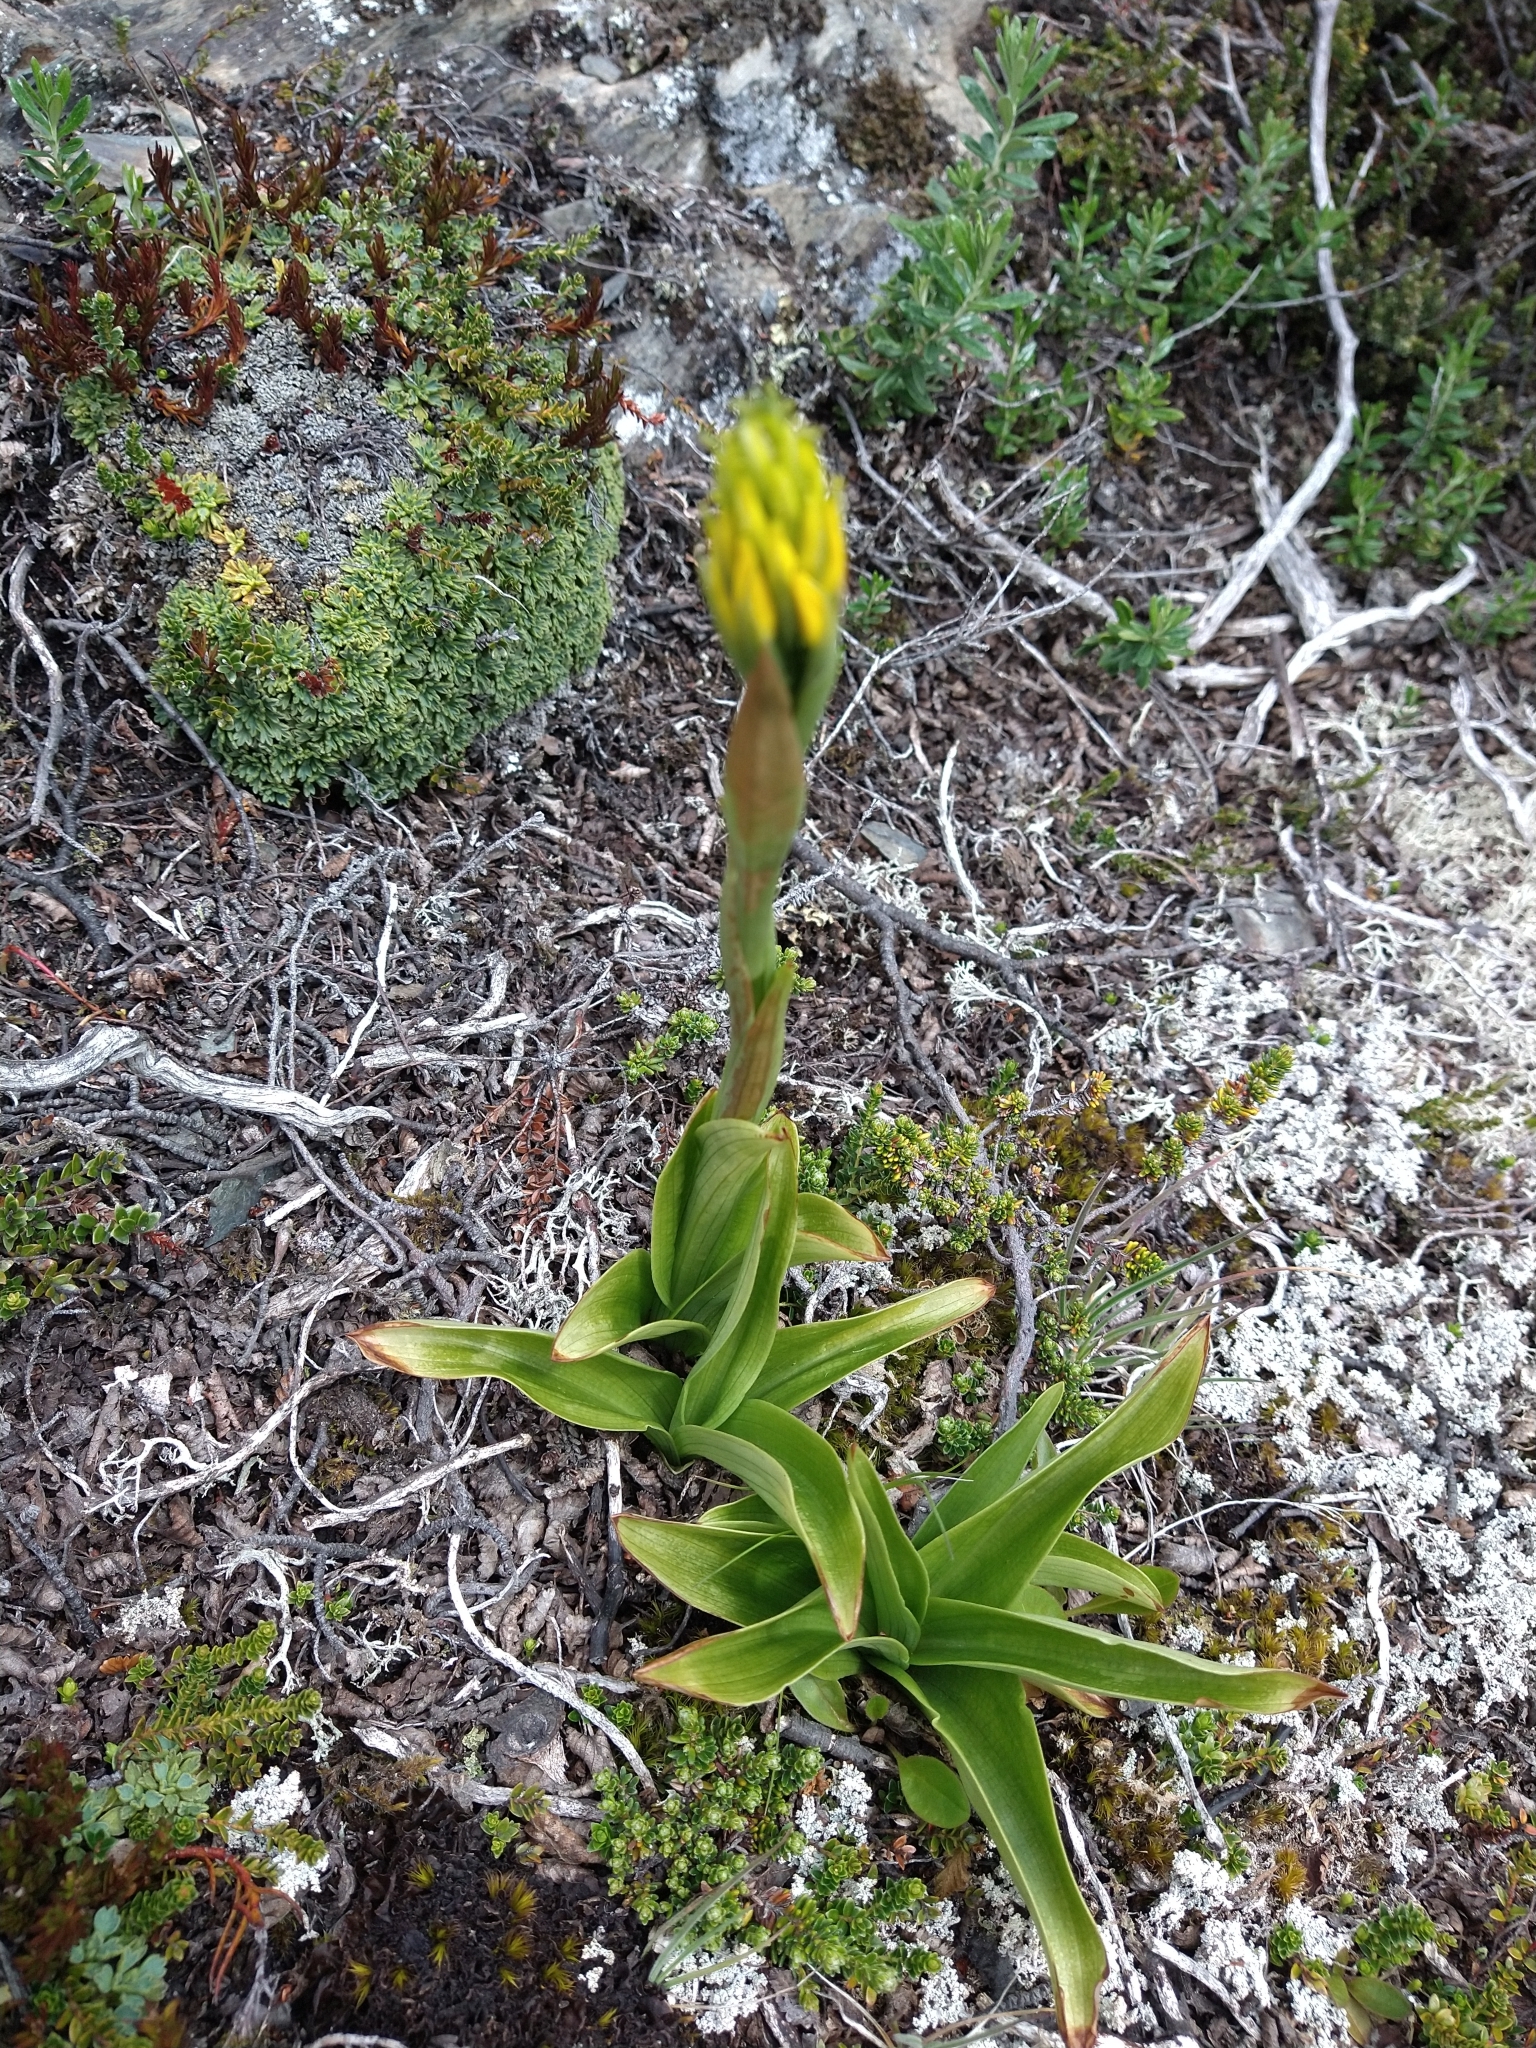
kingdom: Plantae
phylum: Tracheophyta
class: Liliopsida
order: Asparagales
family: Orchidaceae
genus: Gavilea
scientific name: Gavilea lutea
